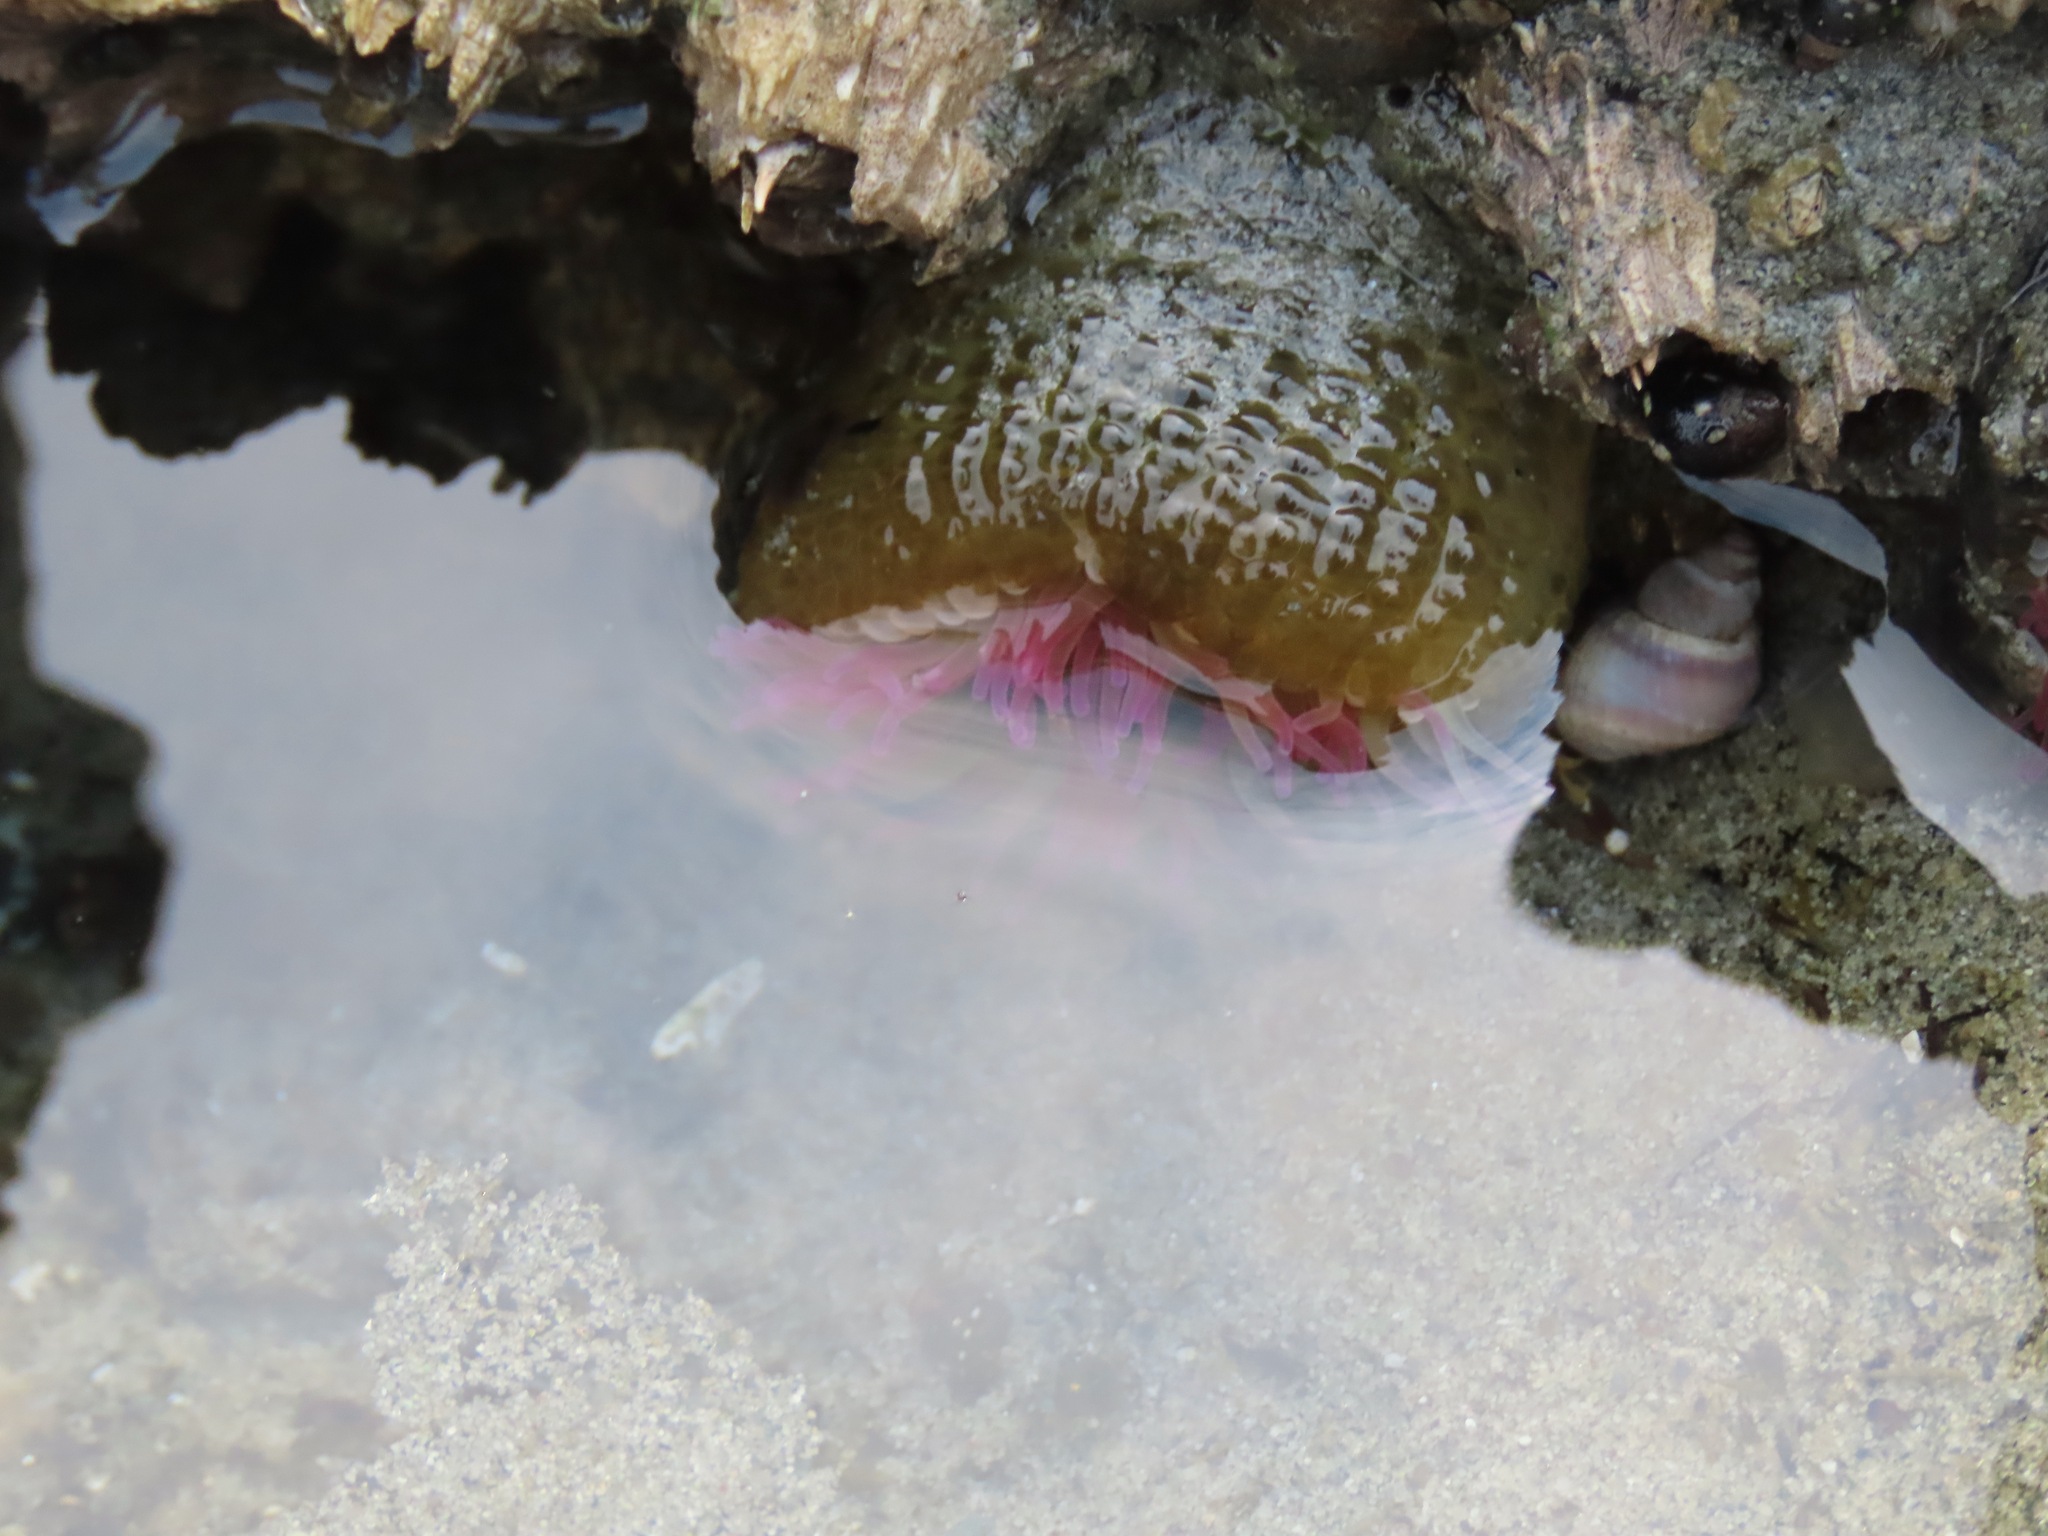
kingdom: Animalia
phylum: Cnidaria
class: Anthozoa
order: Actiniaria
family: Actiniidae
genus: Anthopleura
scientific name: Anthopleura elegantissima
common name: Clonal anemone
